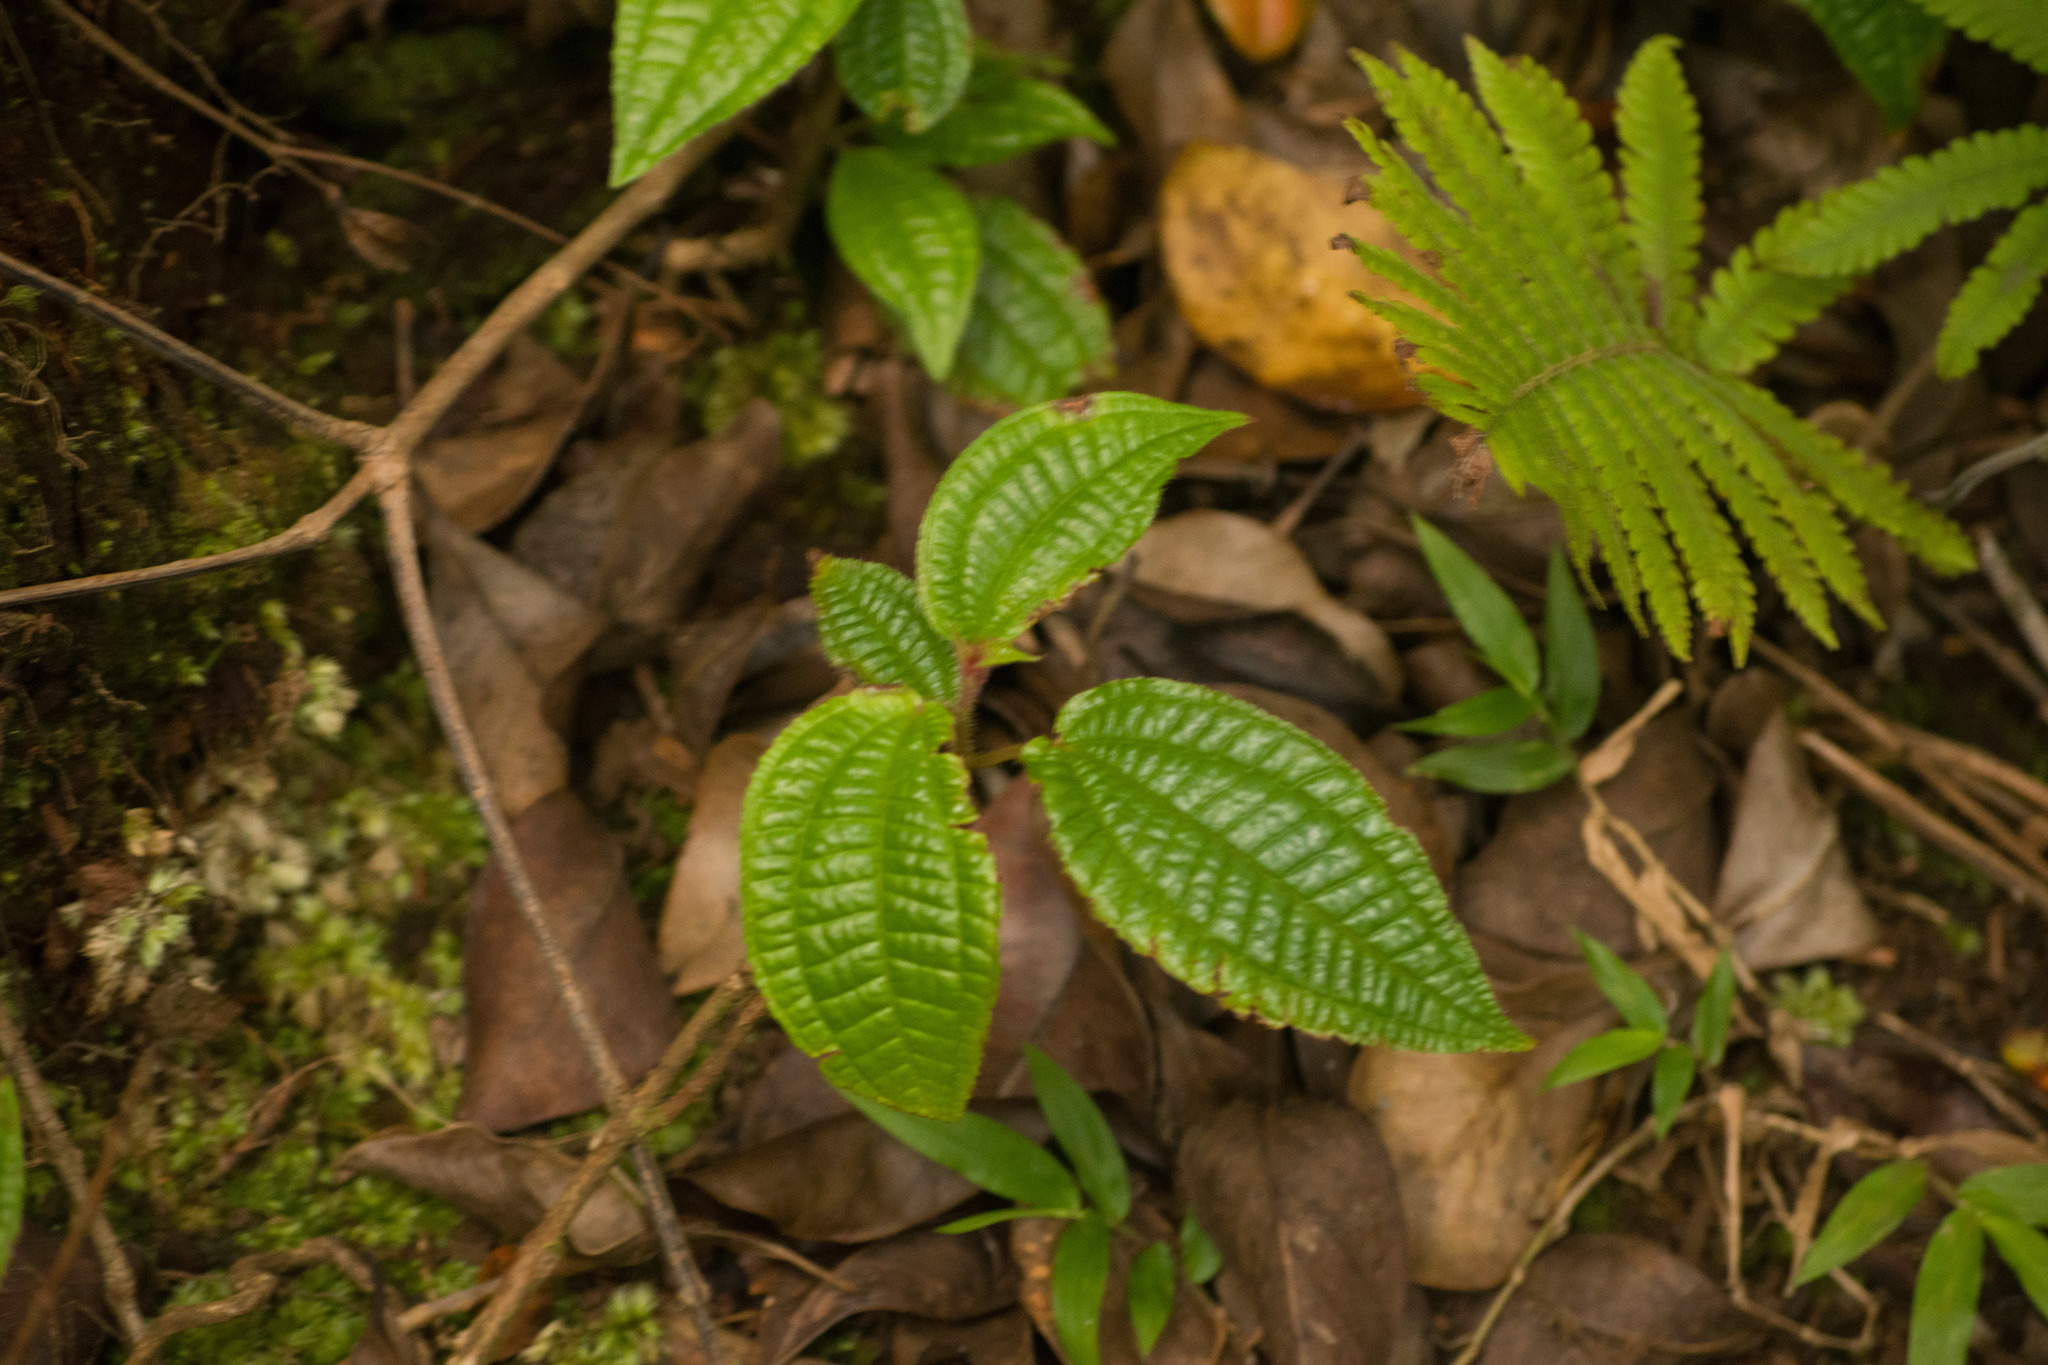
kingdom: Plantae
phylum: Tracheophyta
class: Magnoliopsida
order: Myrtales
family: Melastomataceae
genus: Miconia
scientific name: Miconia crenata
